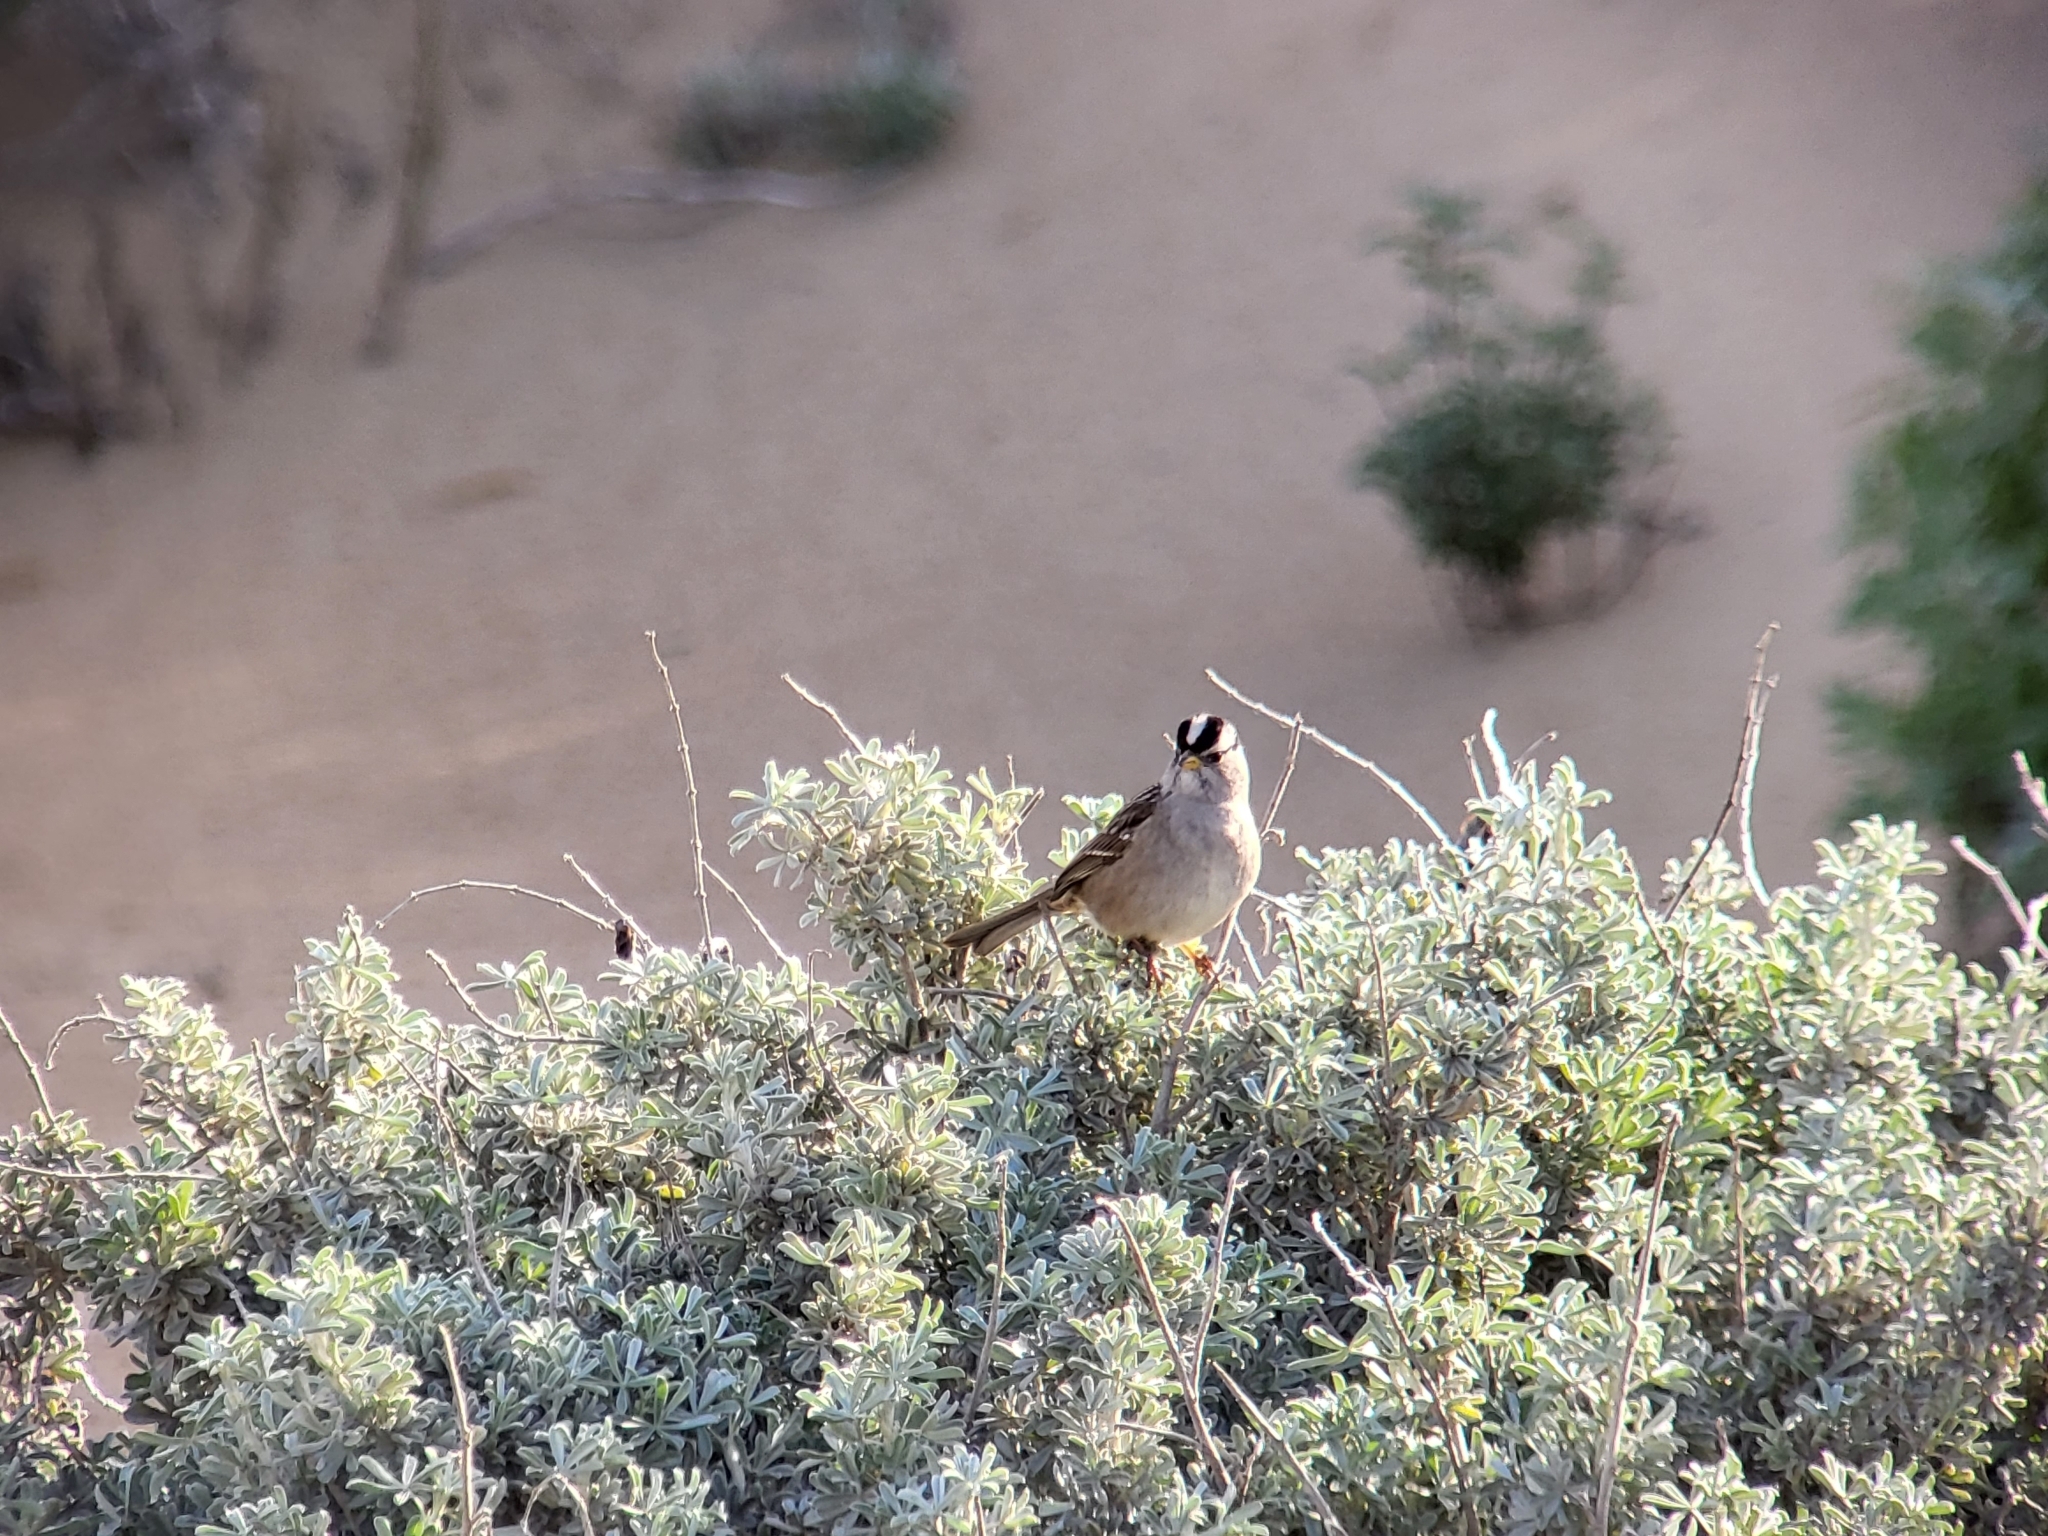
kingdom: Animalia
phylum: Chordata
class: Aves
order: Passeriformes
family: Passerellidae
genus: Zonotrichia
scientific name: Zonotrichia leucophrys
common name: White-crowned sparrow
